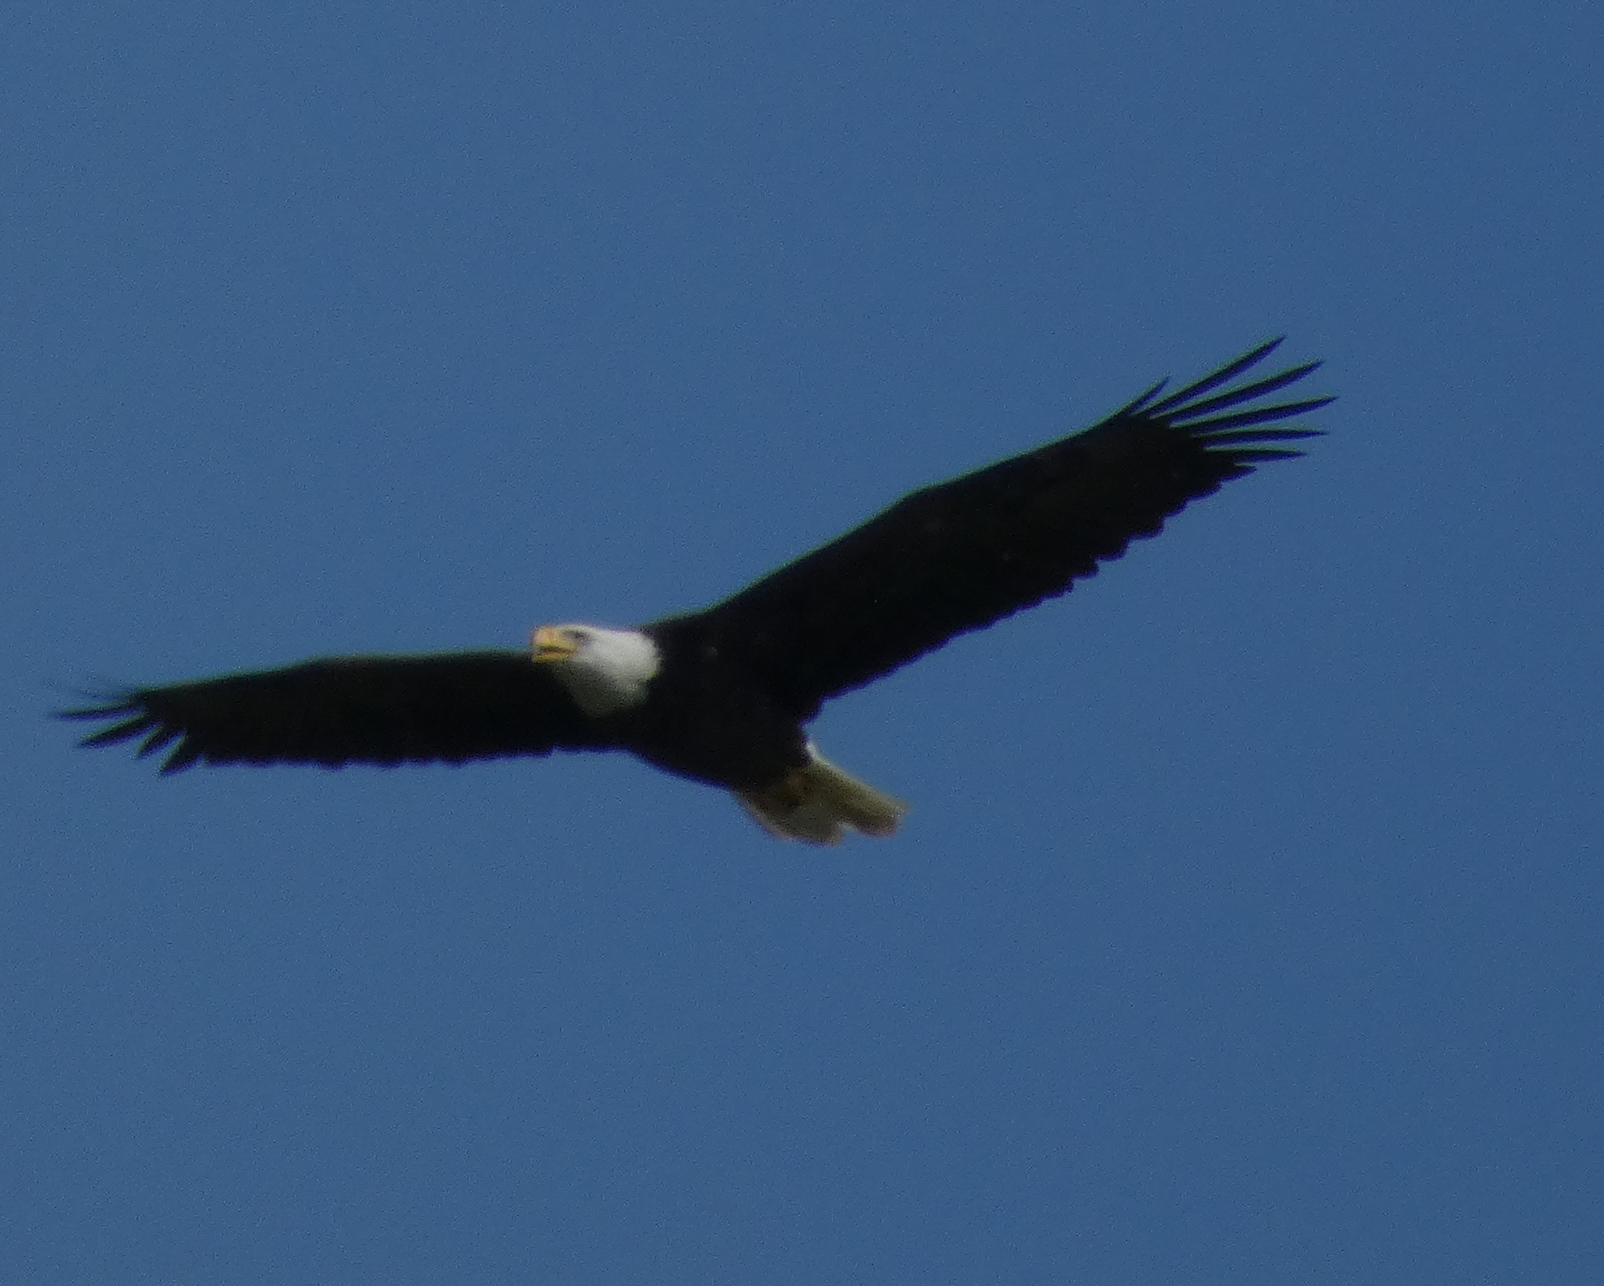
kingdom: Animalia
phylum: Chordata
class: Aves
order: Accipitriformes
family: Accipitridae
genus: Haliaeetus
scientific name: Haliaeetus leucocephalus
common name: Bald eagle
